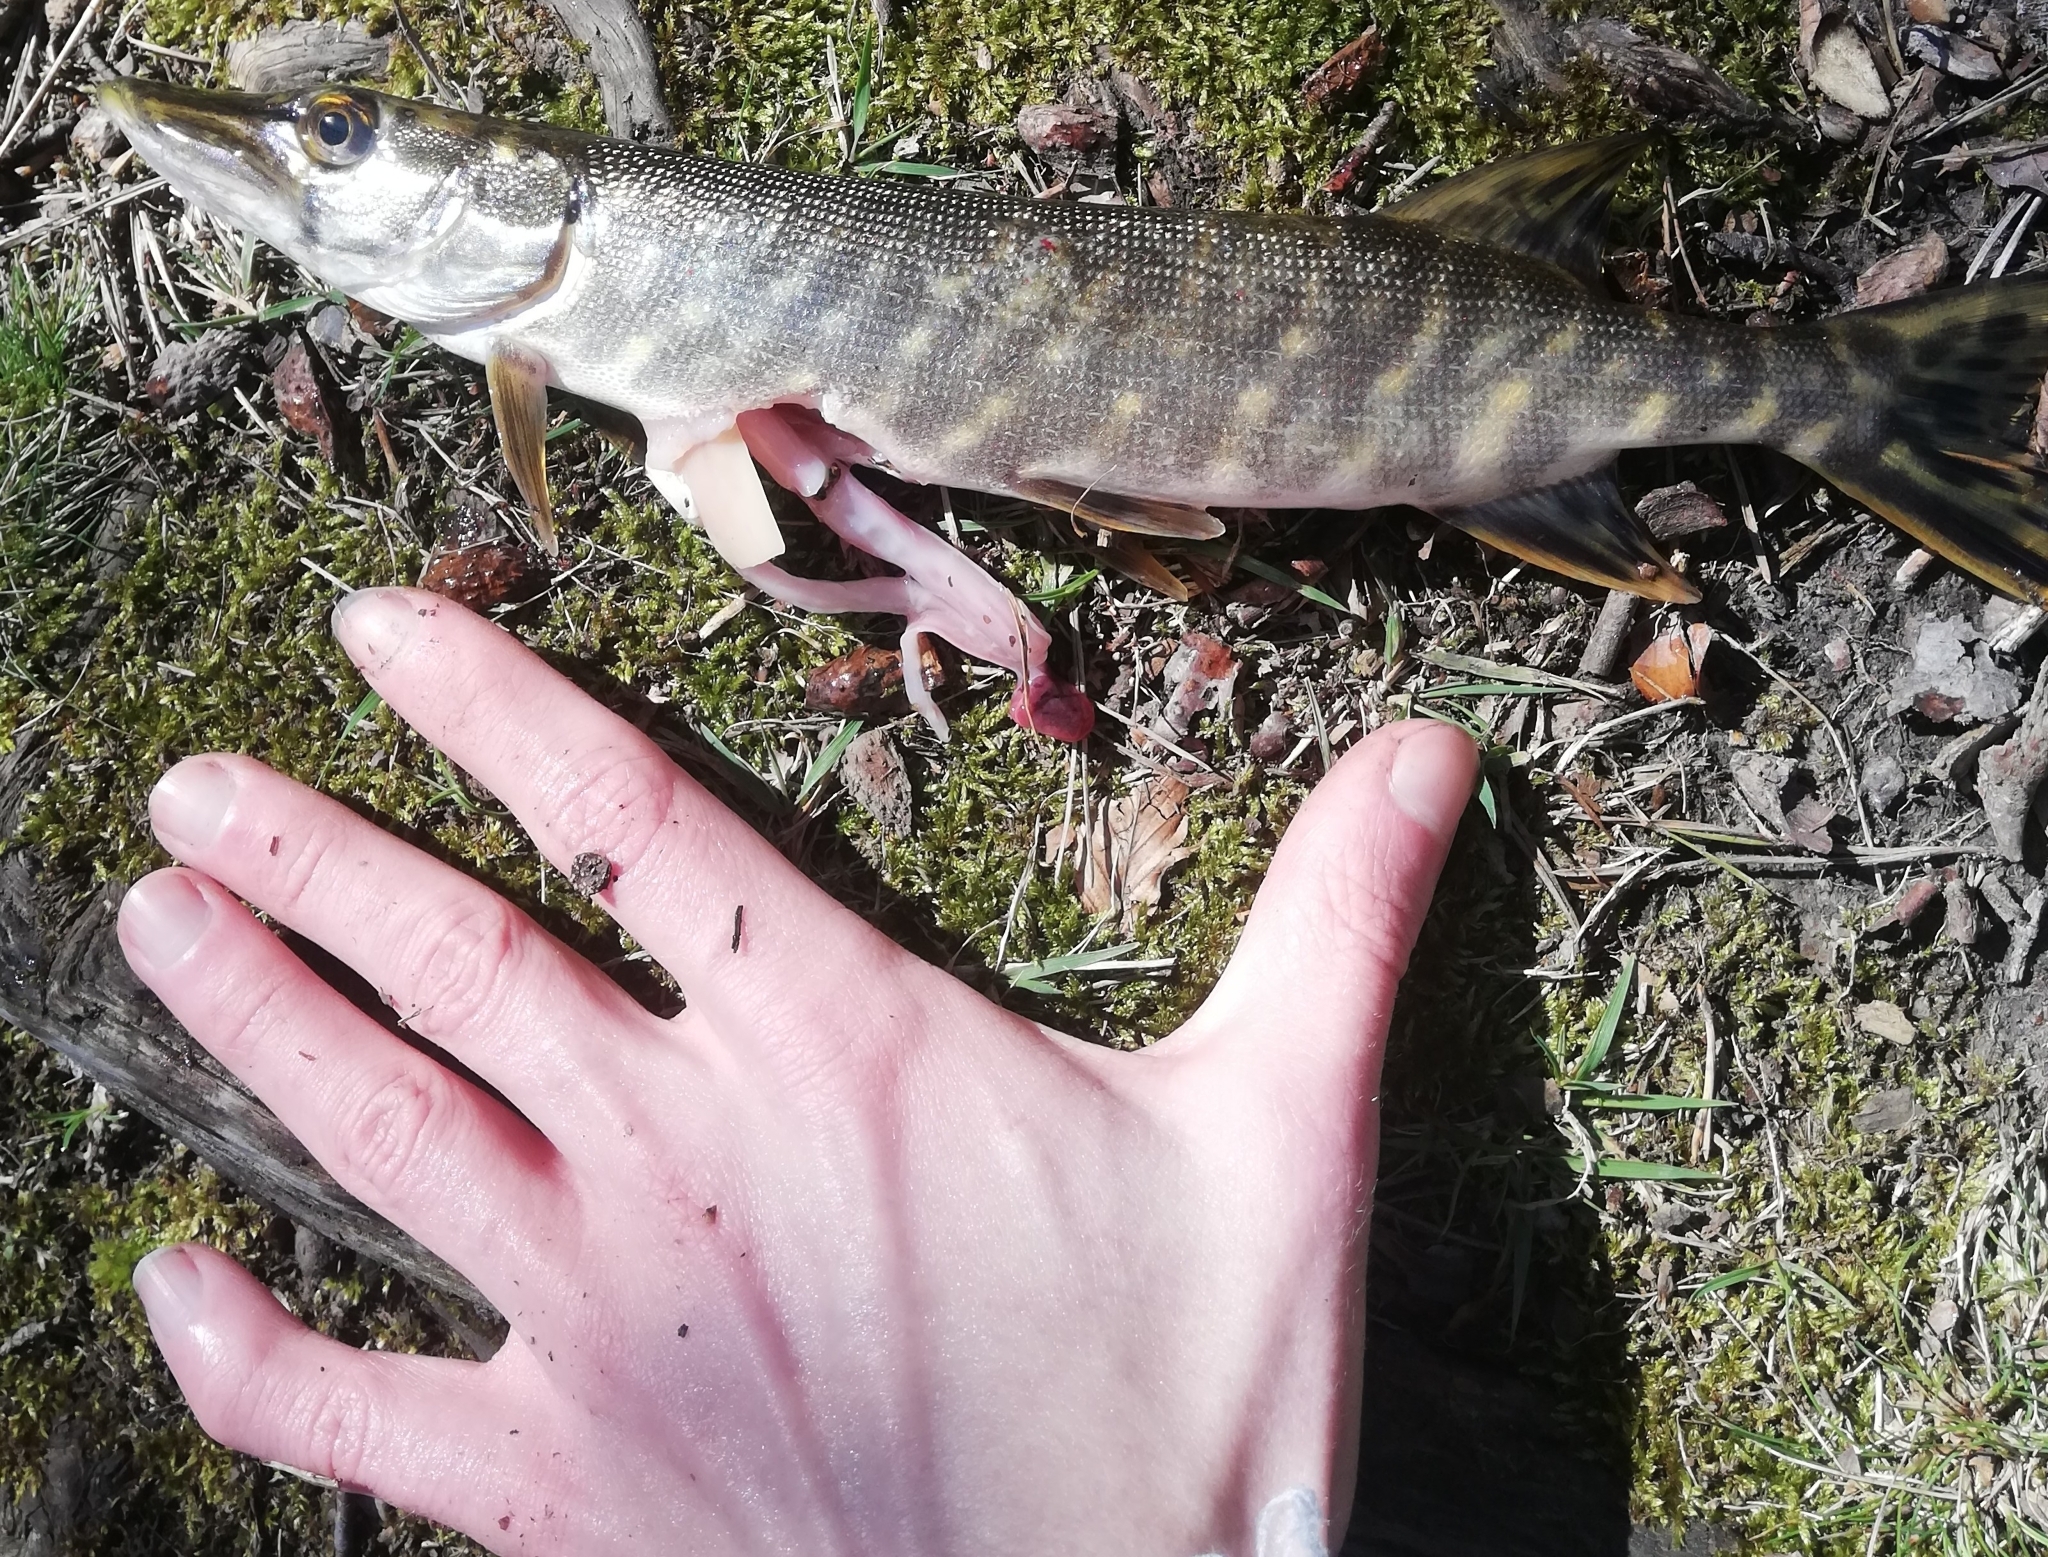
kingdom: Animalia
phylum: Chordata
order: Esociformes
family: Esocidae
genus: Esox
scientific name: Esox lucius
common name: Northern pike
